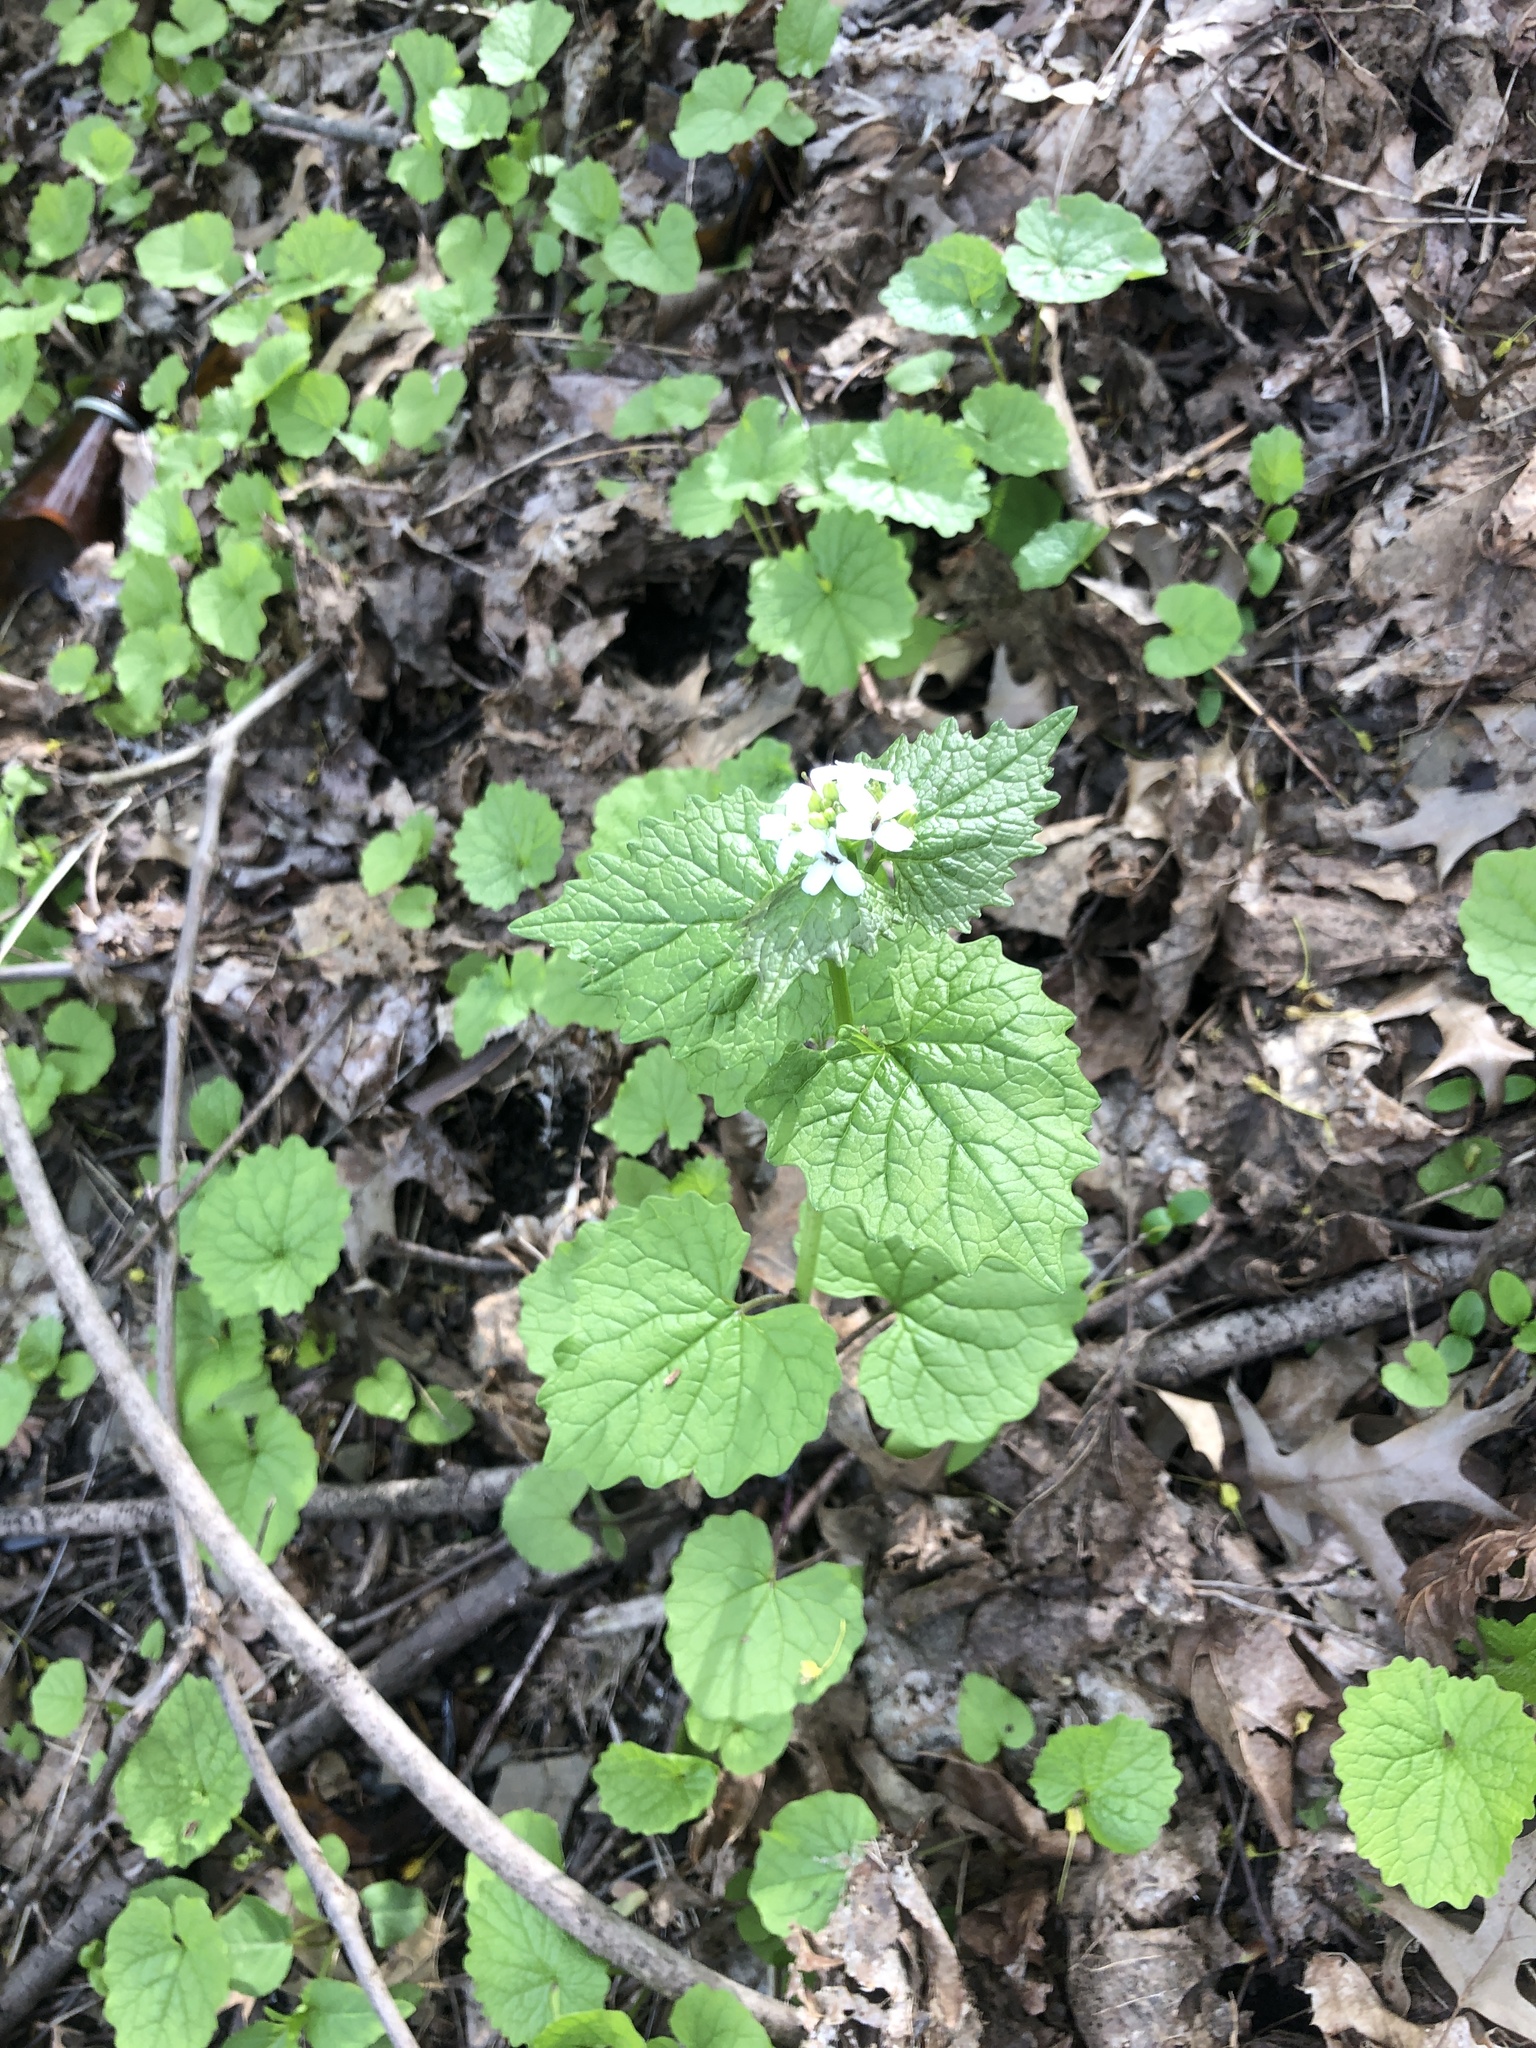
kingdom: Plantae
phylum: Tracheophyta
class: Magnoliopsida
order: Brassicales
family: Brassicaceae
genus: Alliaria
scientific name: Alliaria petiolata
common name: Garlic mustard
